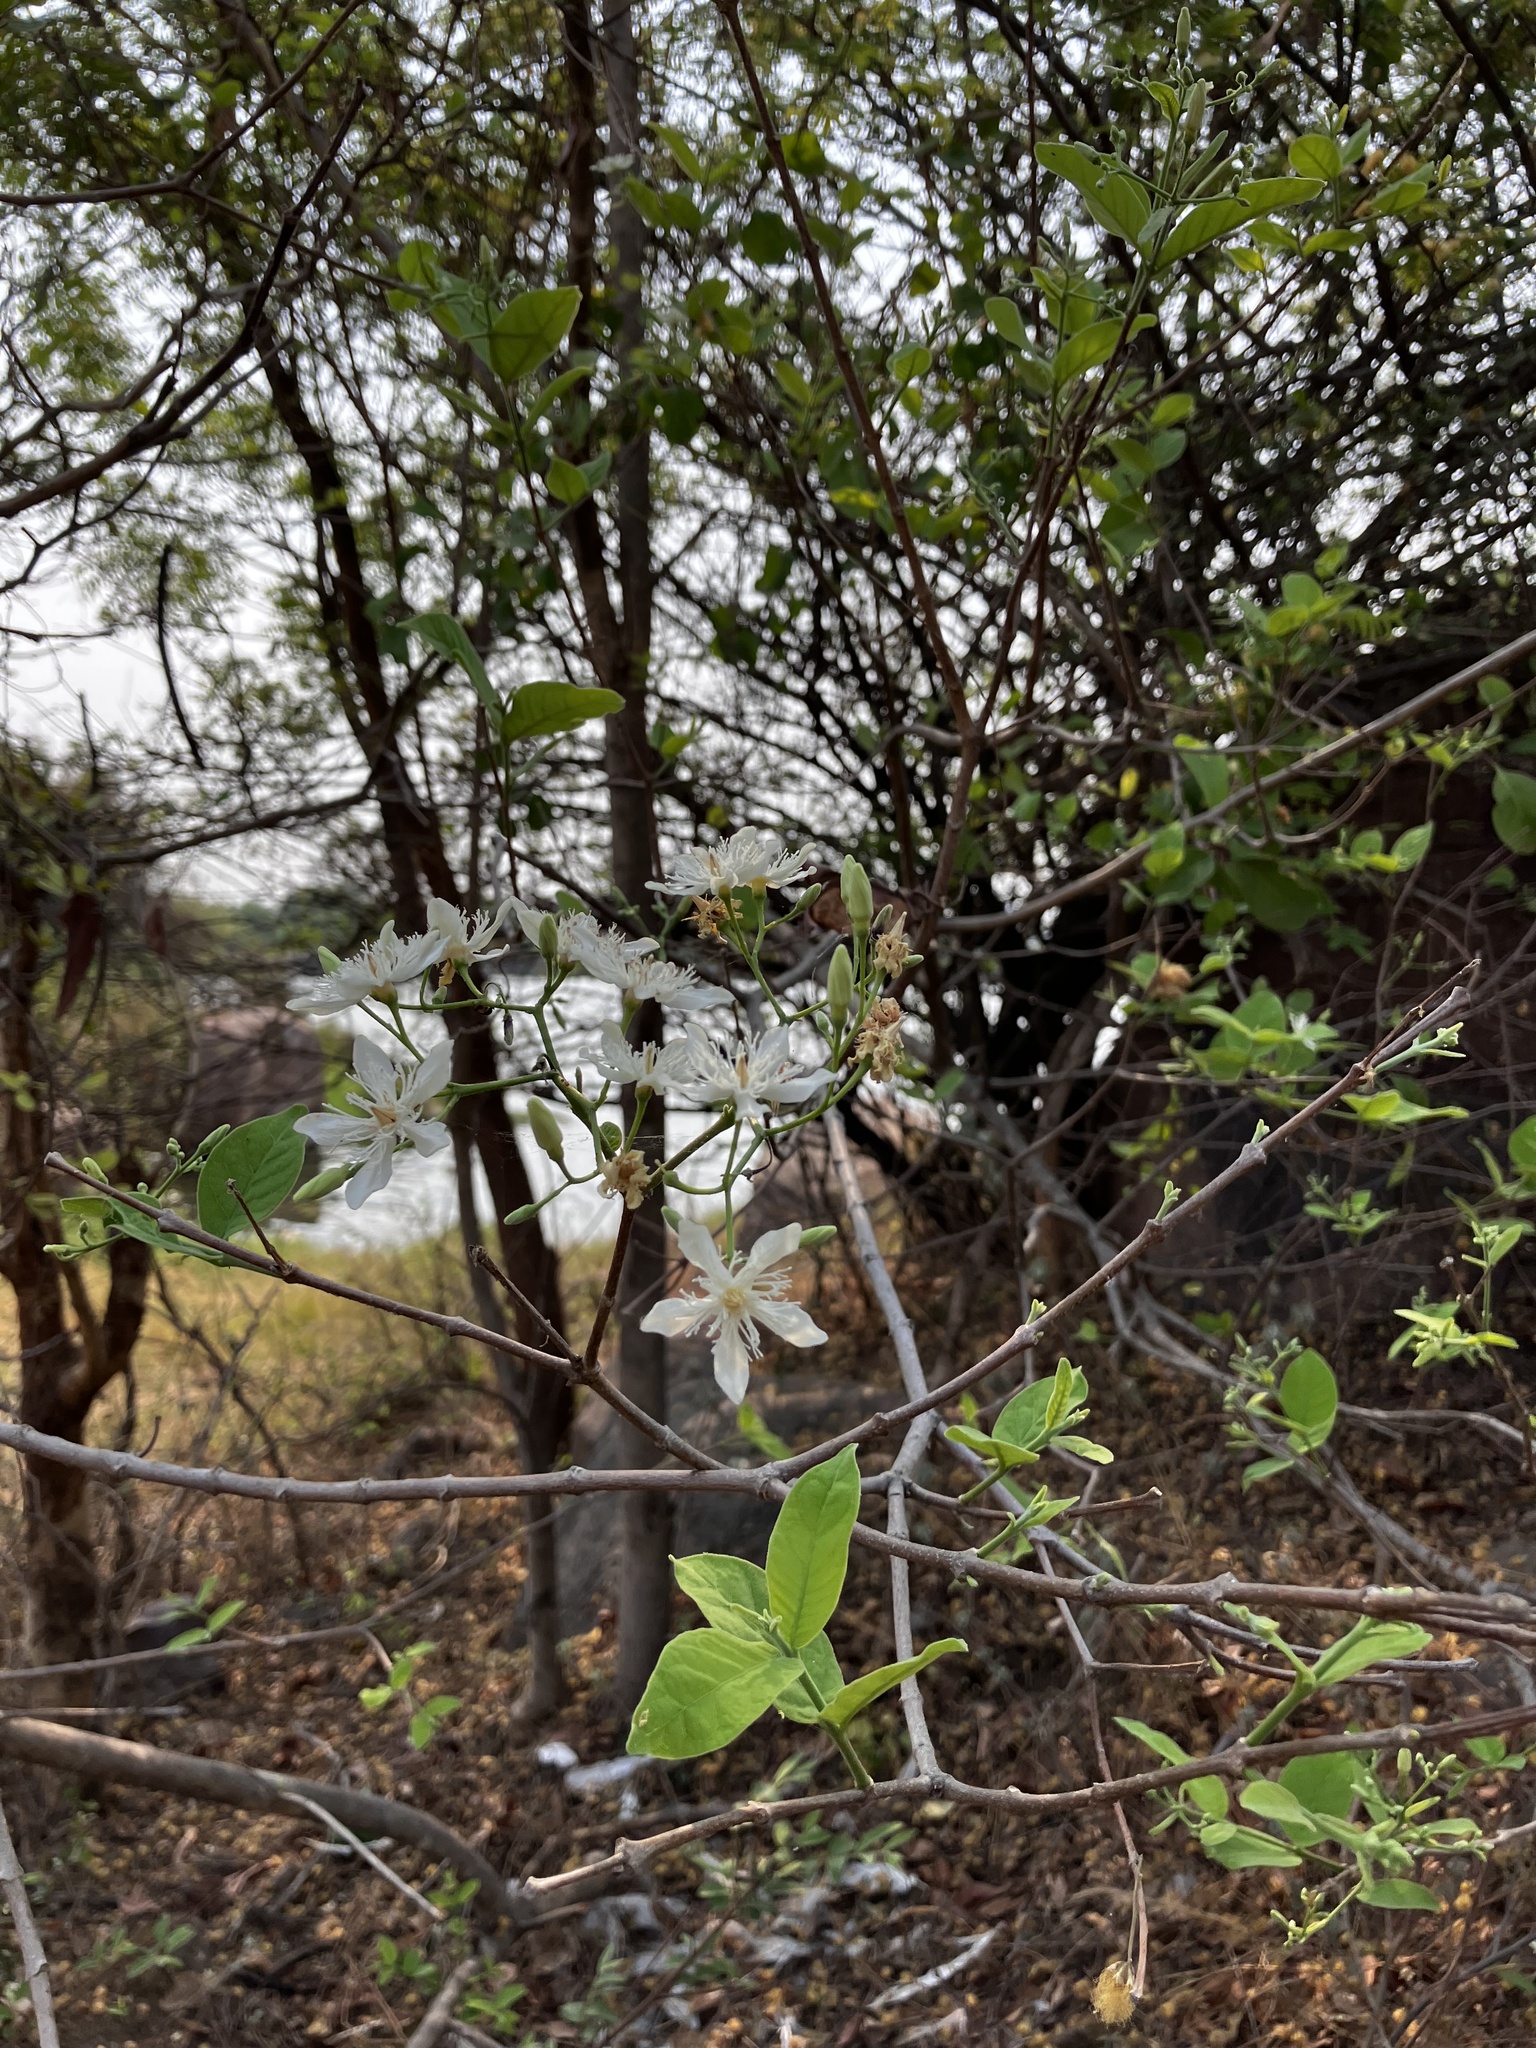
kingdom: Plantae
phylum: Tracheophyta
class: Magnoliopsida
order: Gentianales
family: Apocynaceae
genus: Wrightia
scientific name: Wrightia tinctoria
